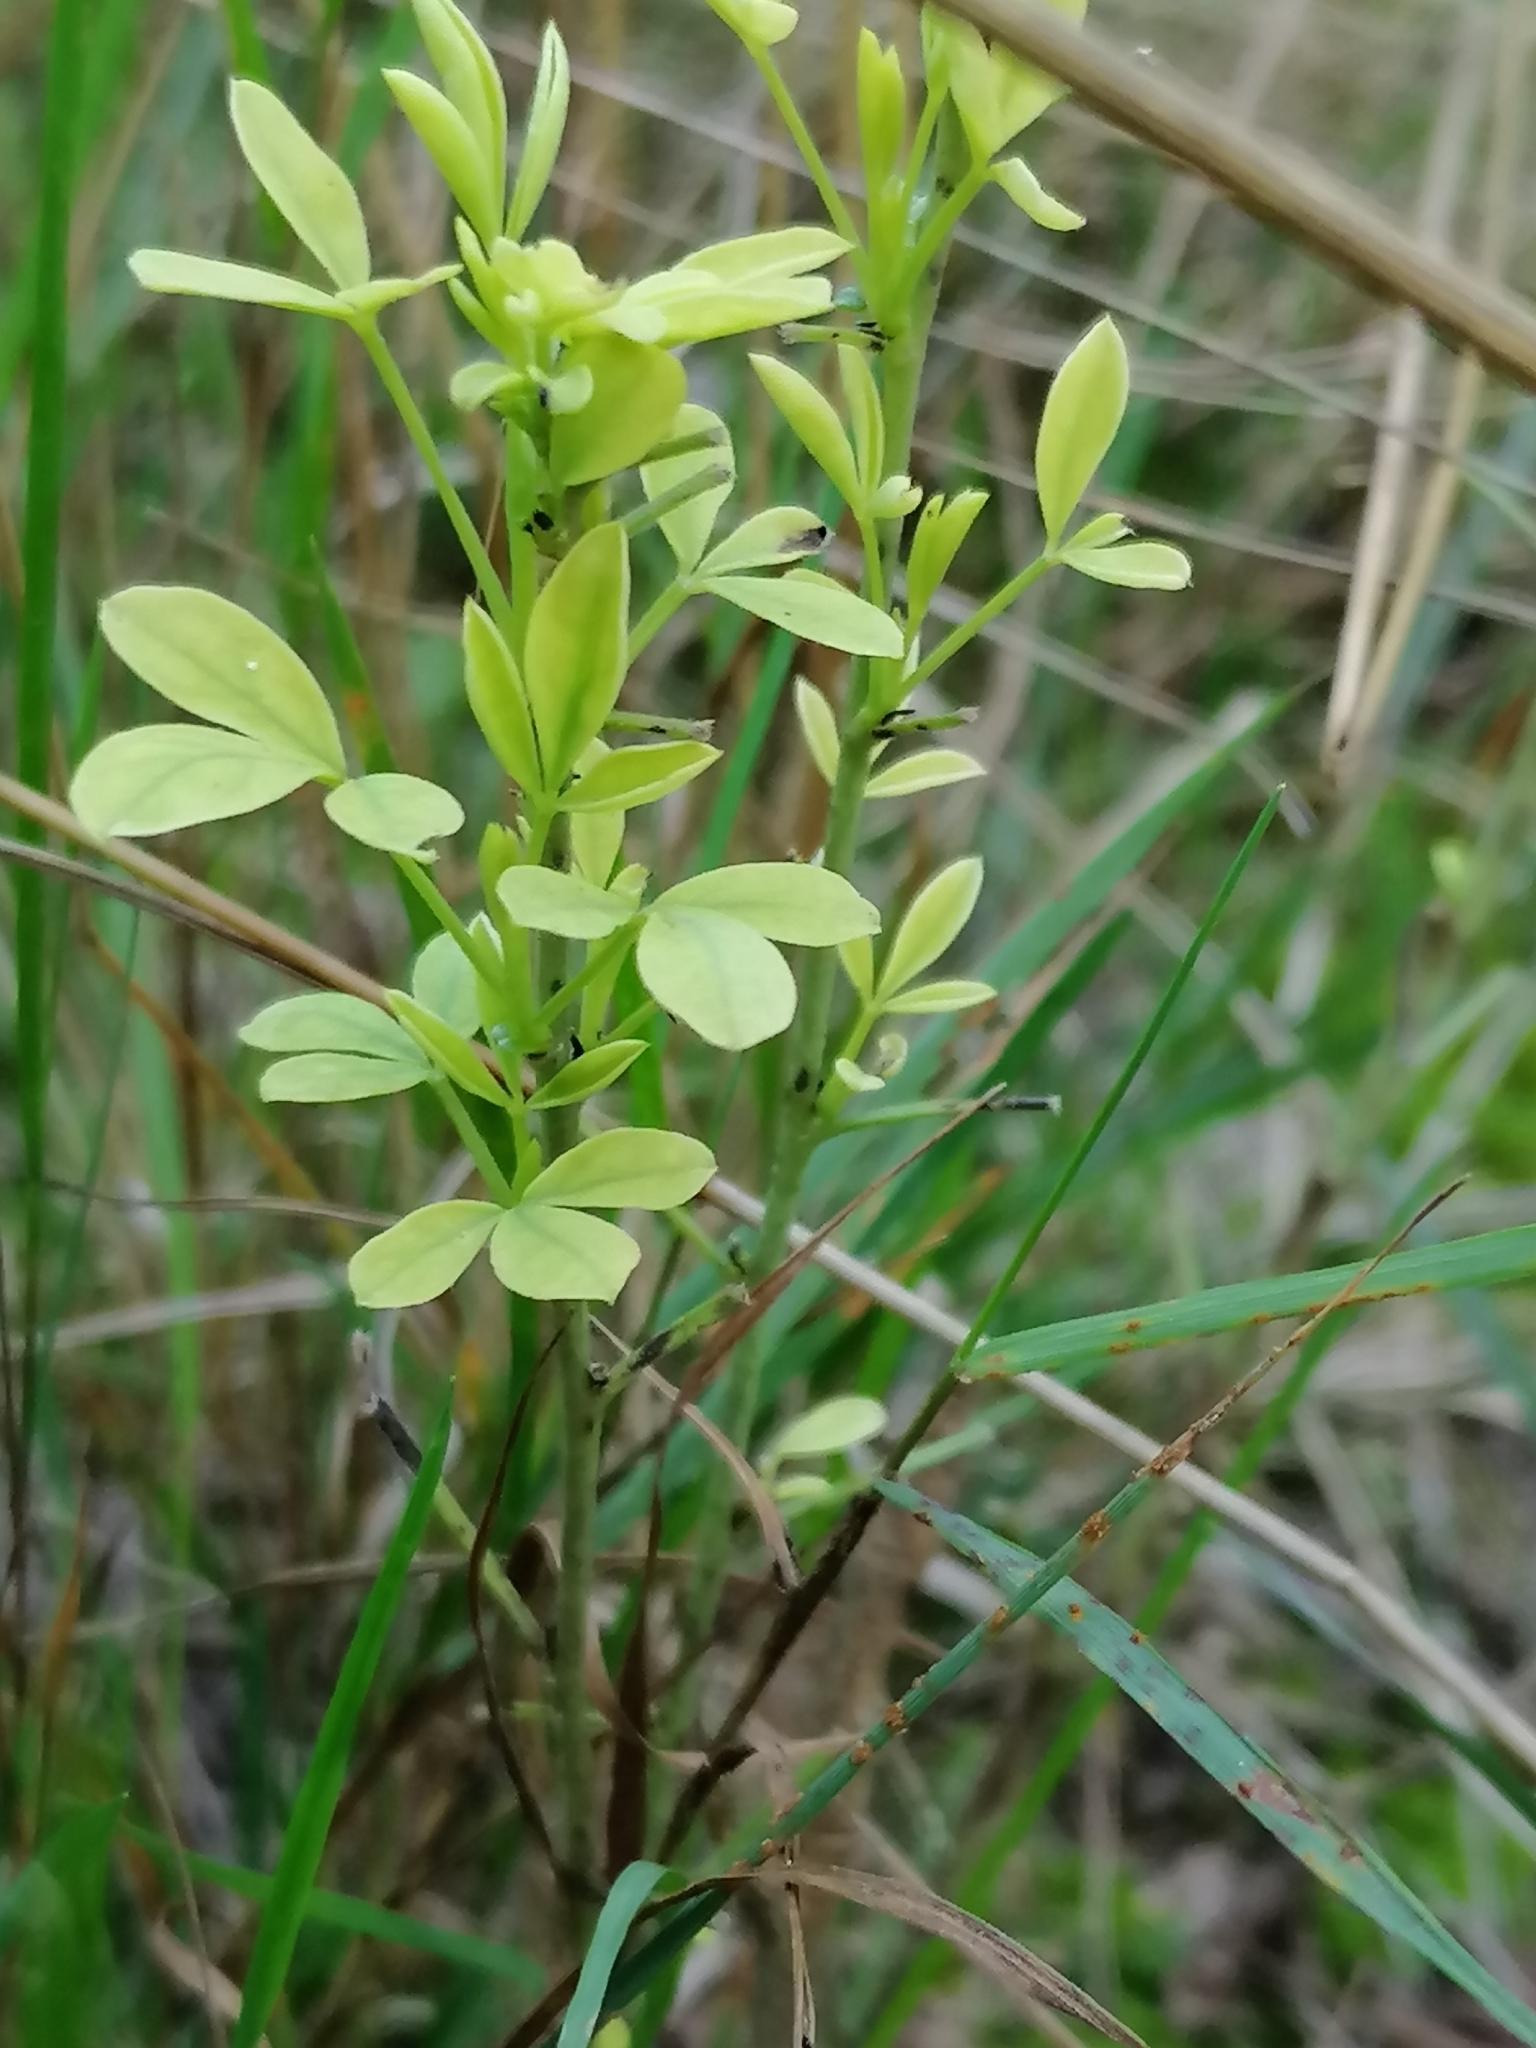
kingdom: Plantae
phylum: Tracheophyta
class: Magnoliopsida
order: Fabales
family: Fabaceae
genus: Chamaecytisus
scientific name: Chamaecytisus ruthenicus
